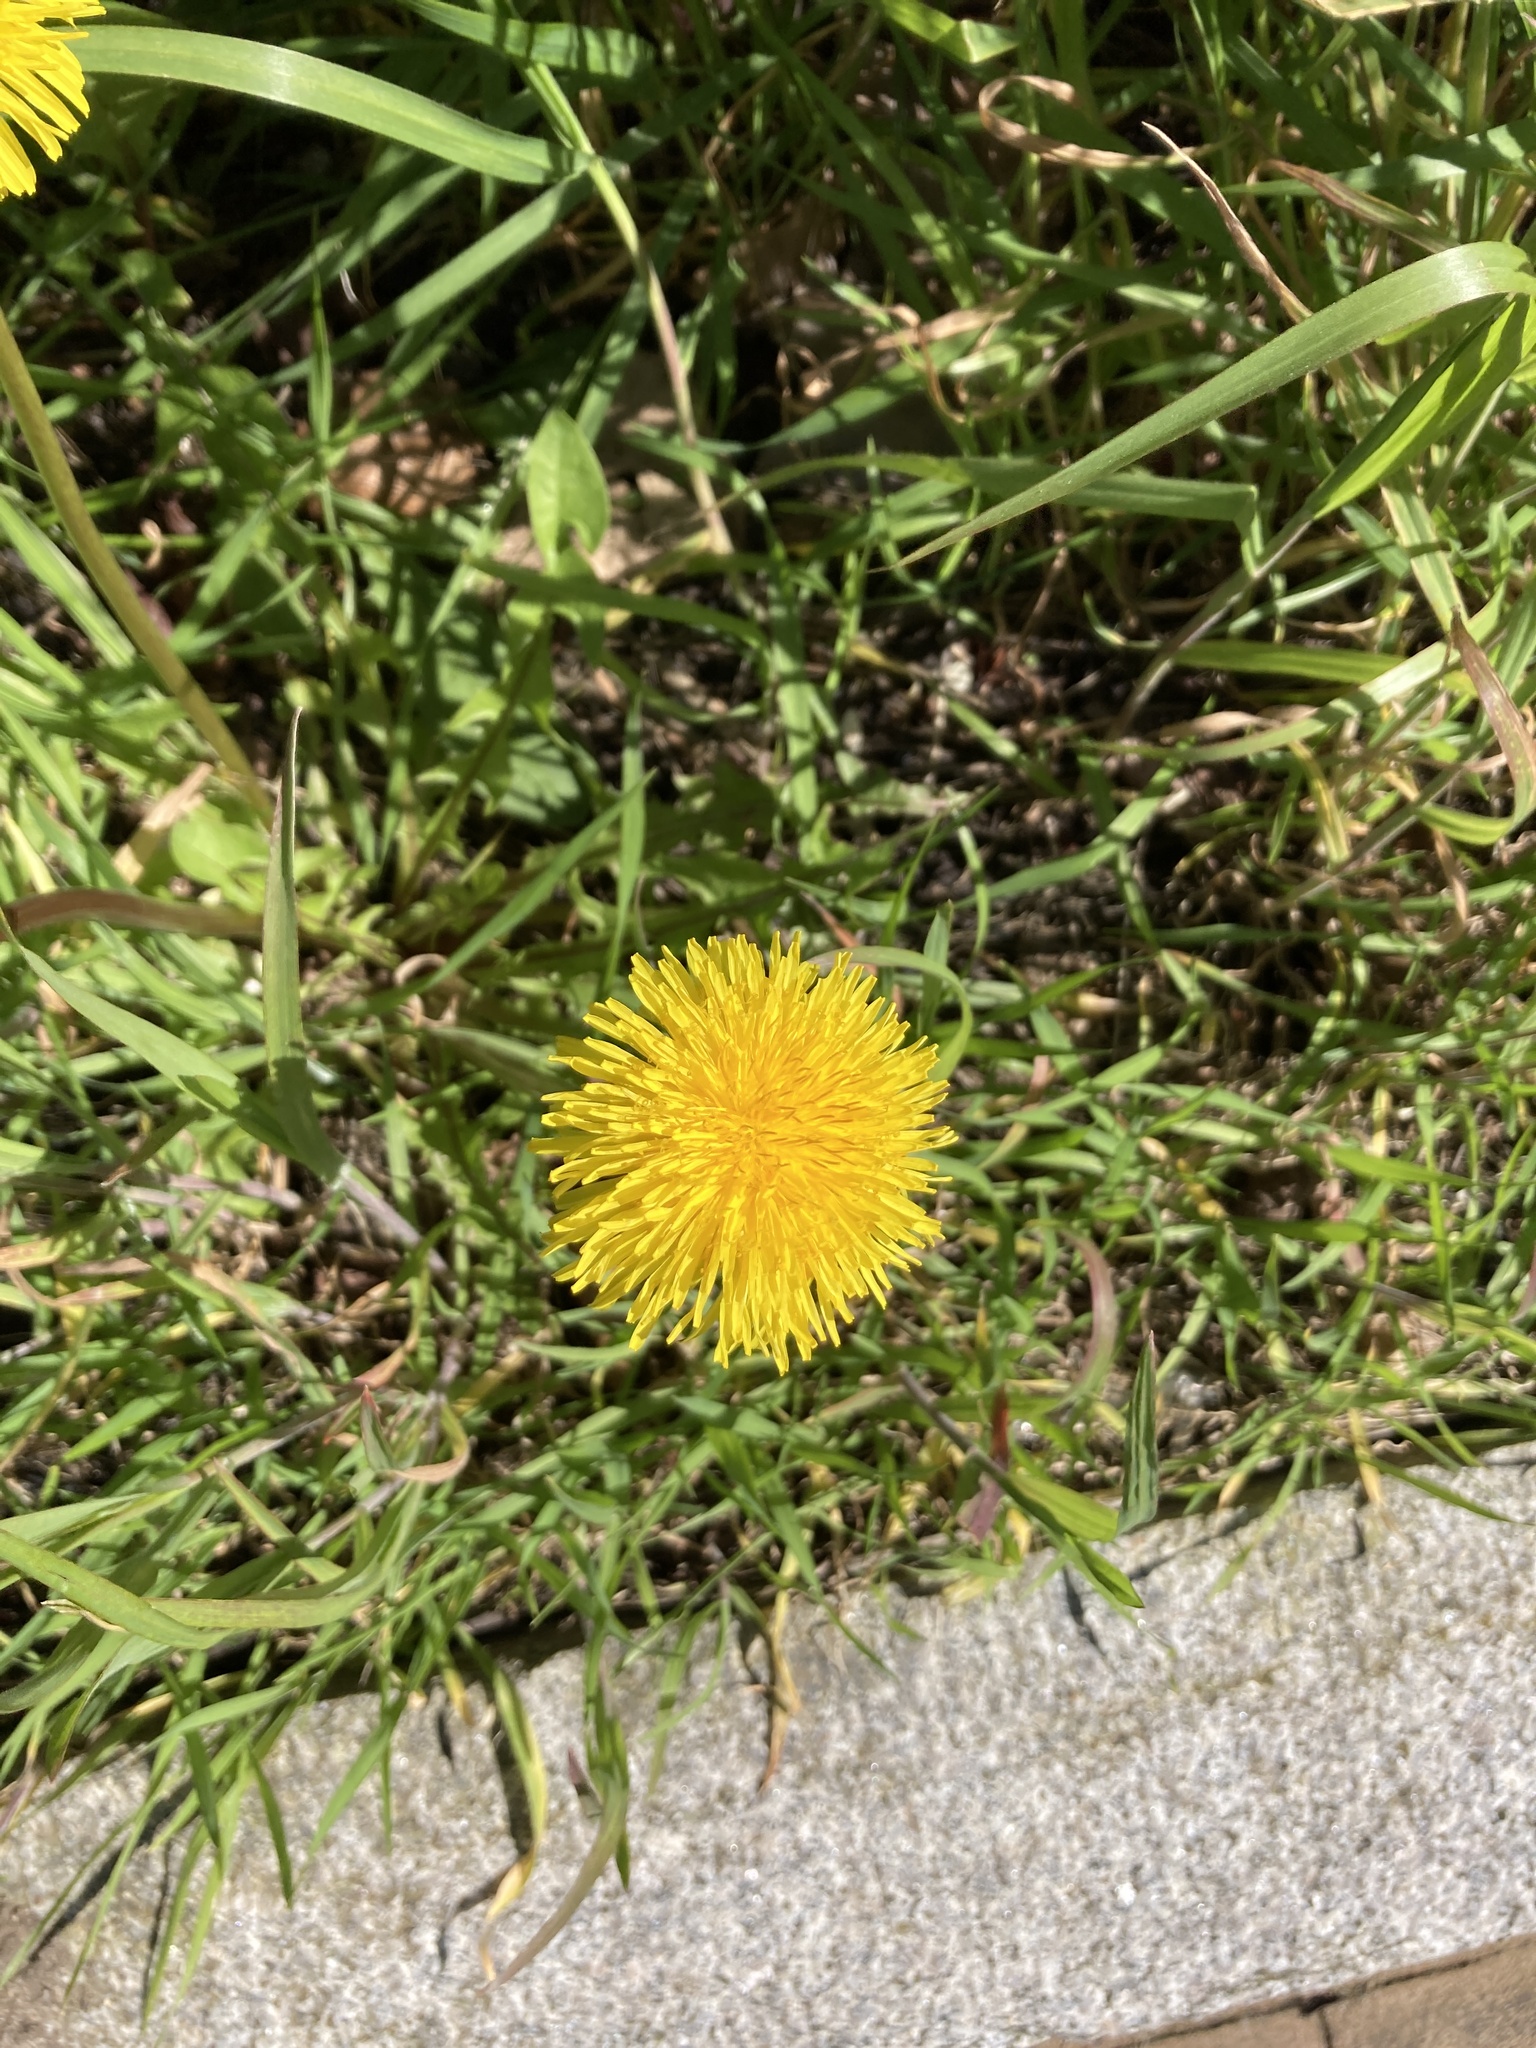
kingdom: Plantae
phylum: Tracheophyta
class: Magnoliopsida
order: Asterales
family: Asteraceae
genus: Taraxacum
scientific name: Taraxacum officinale
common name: Common dandelion
